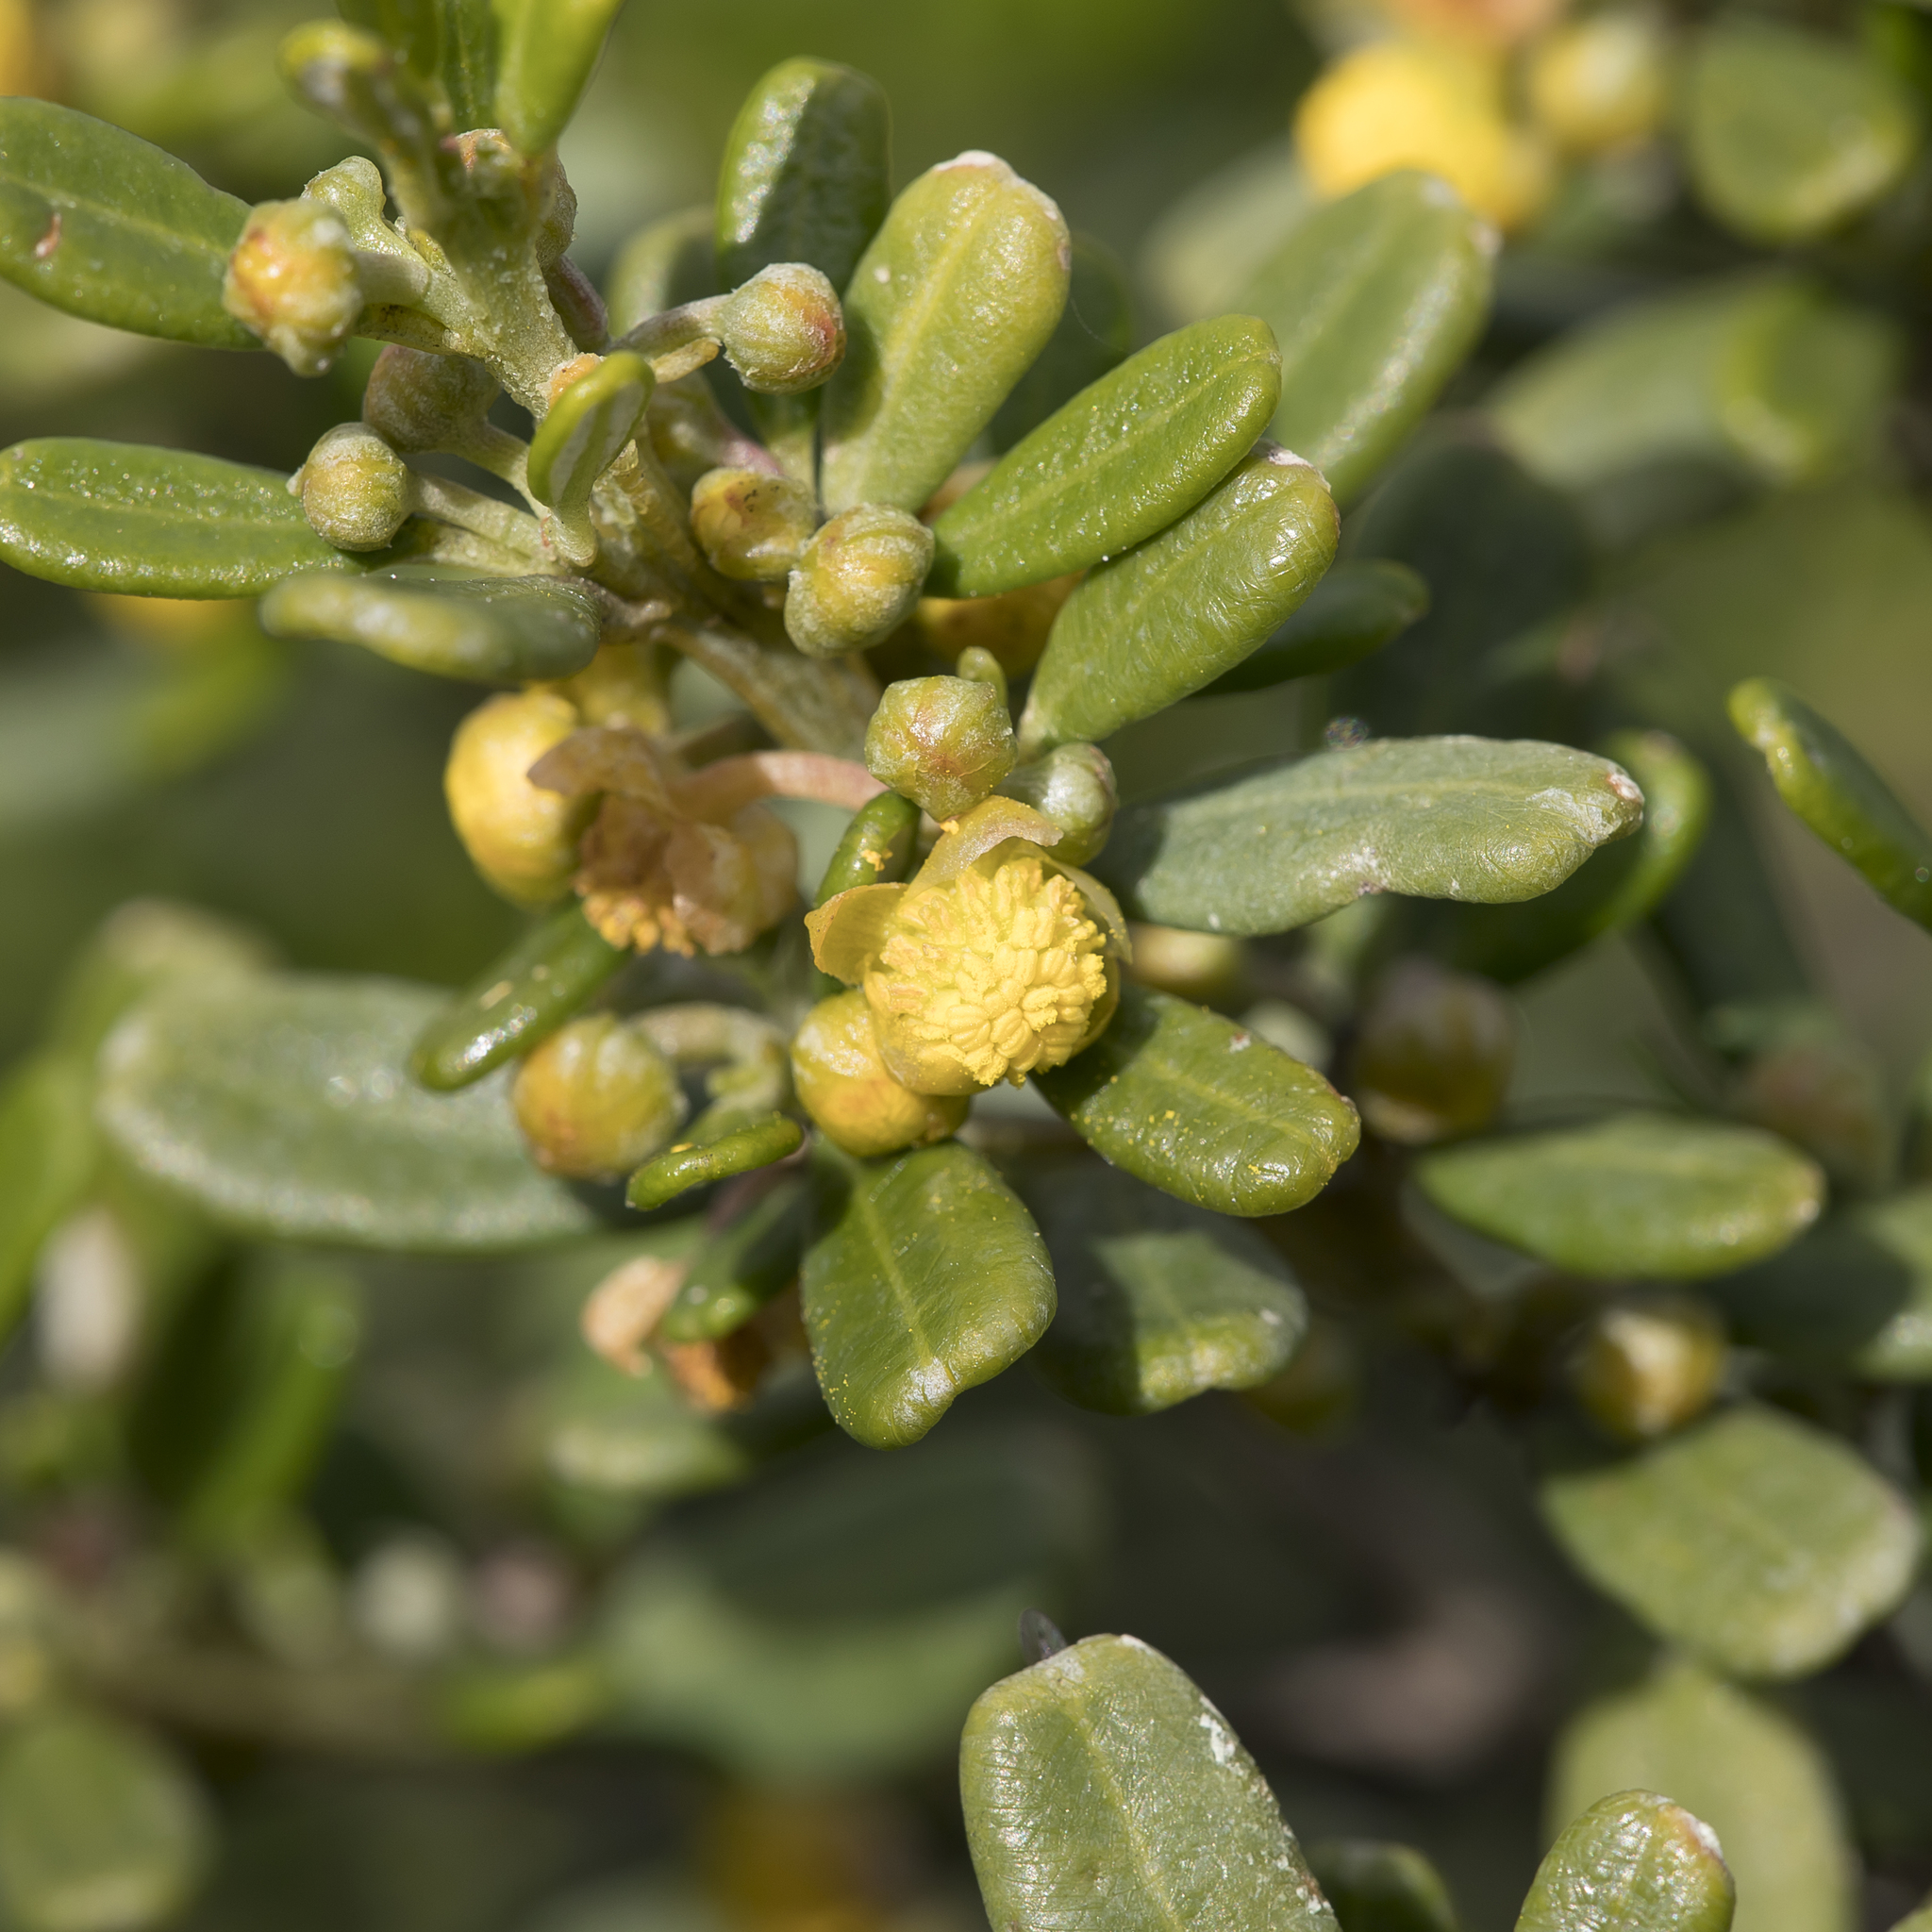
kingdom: Plantae
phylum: Tracheophyta
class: Magnoliopsida
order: Malpighiales
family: Euphorbiaceae
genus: Beyeria
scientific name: Beyeria lechenaultii
